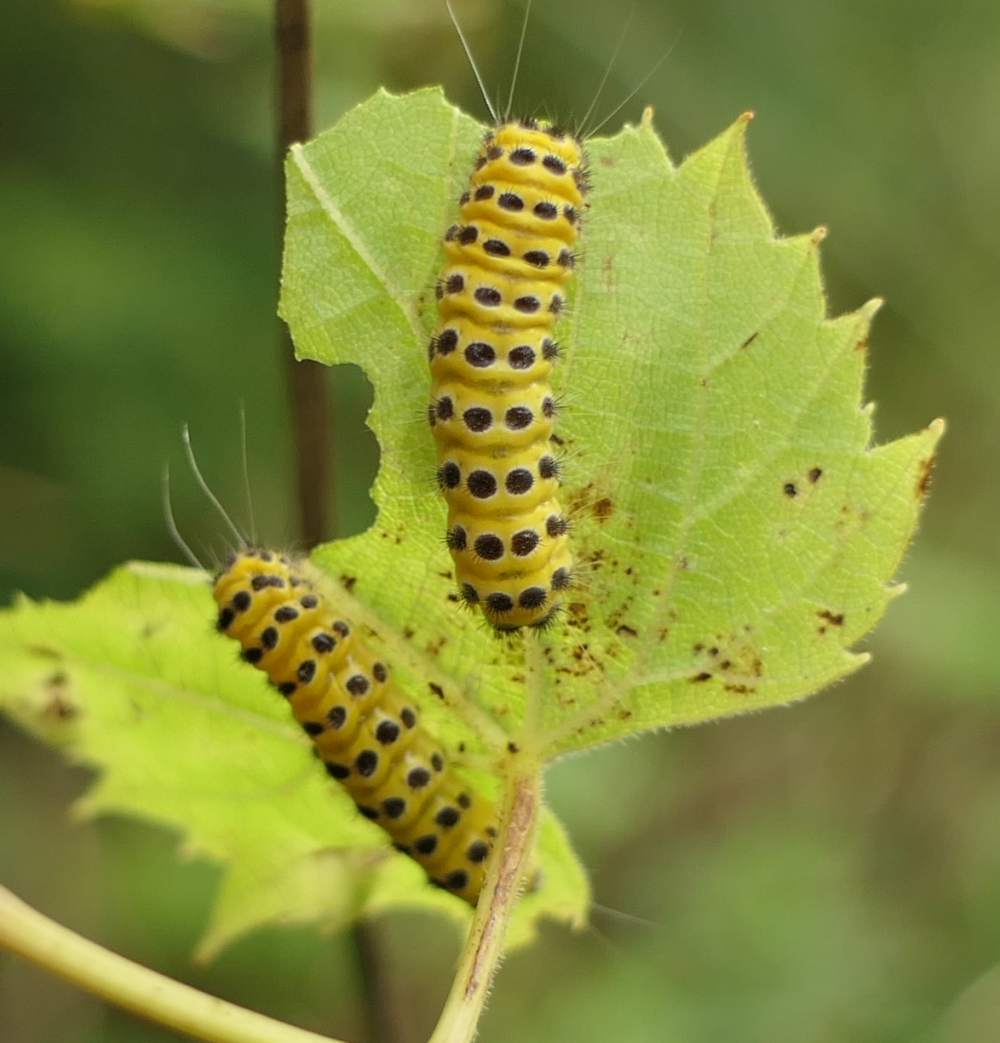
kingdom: Animalia
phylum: Arthropoda
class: Insecta
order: Lepidoptera
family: Zygaenidae
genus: Harrisina
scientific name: Harrisina americana
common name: Grapeleaf skeletonizer moth
